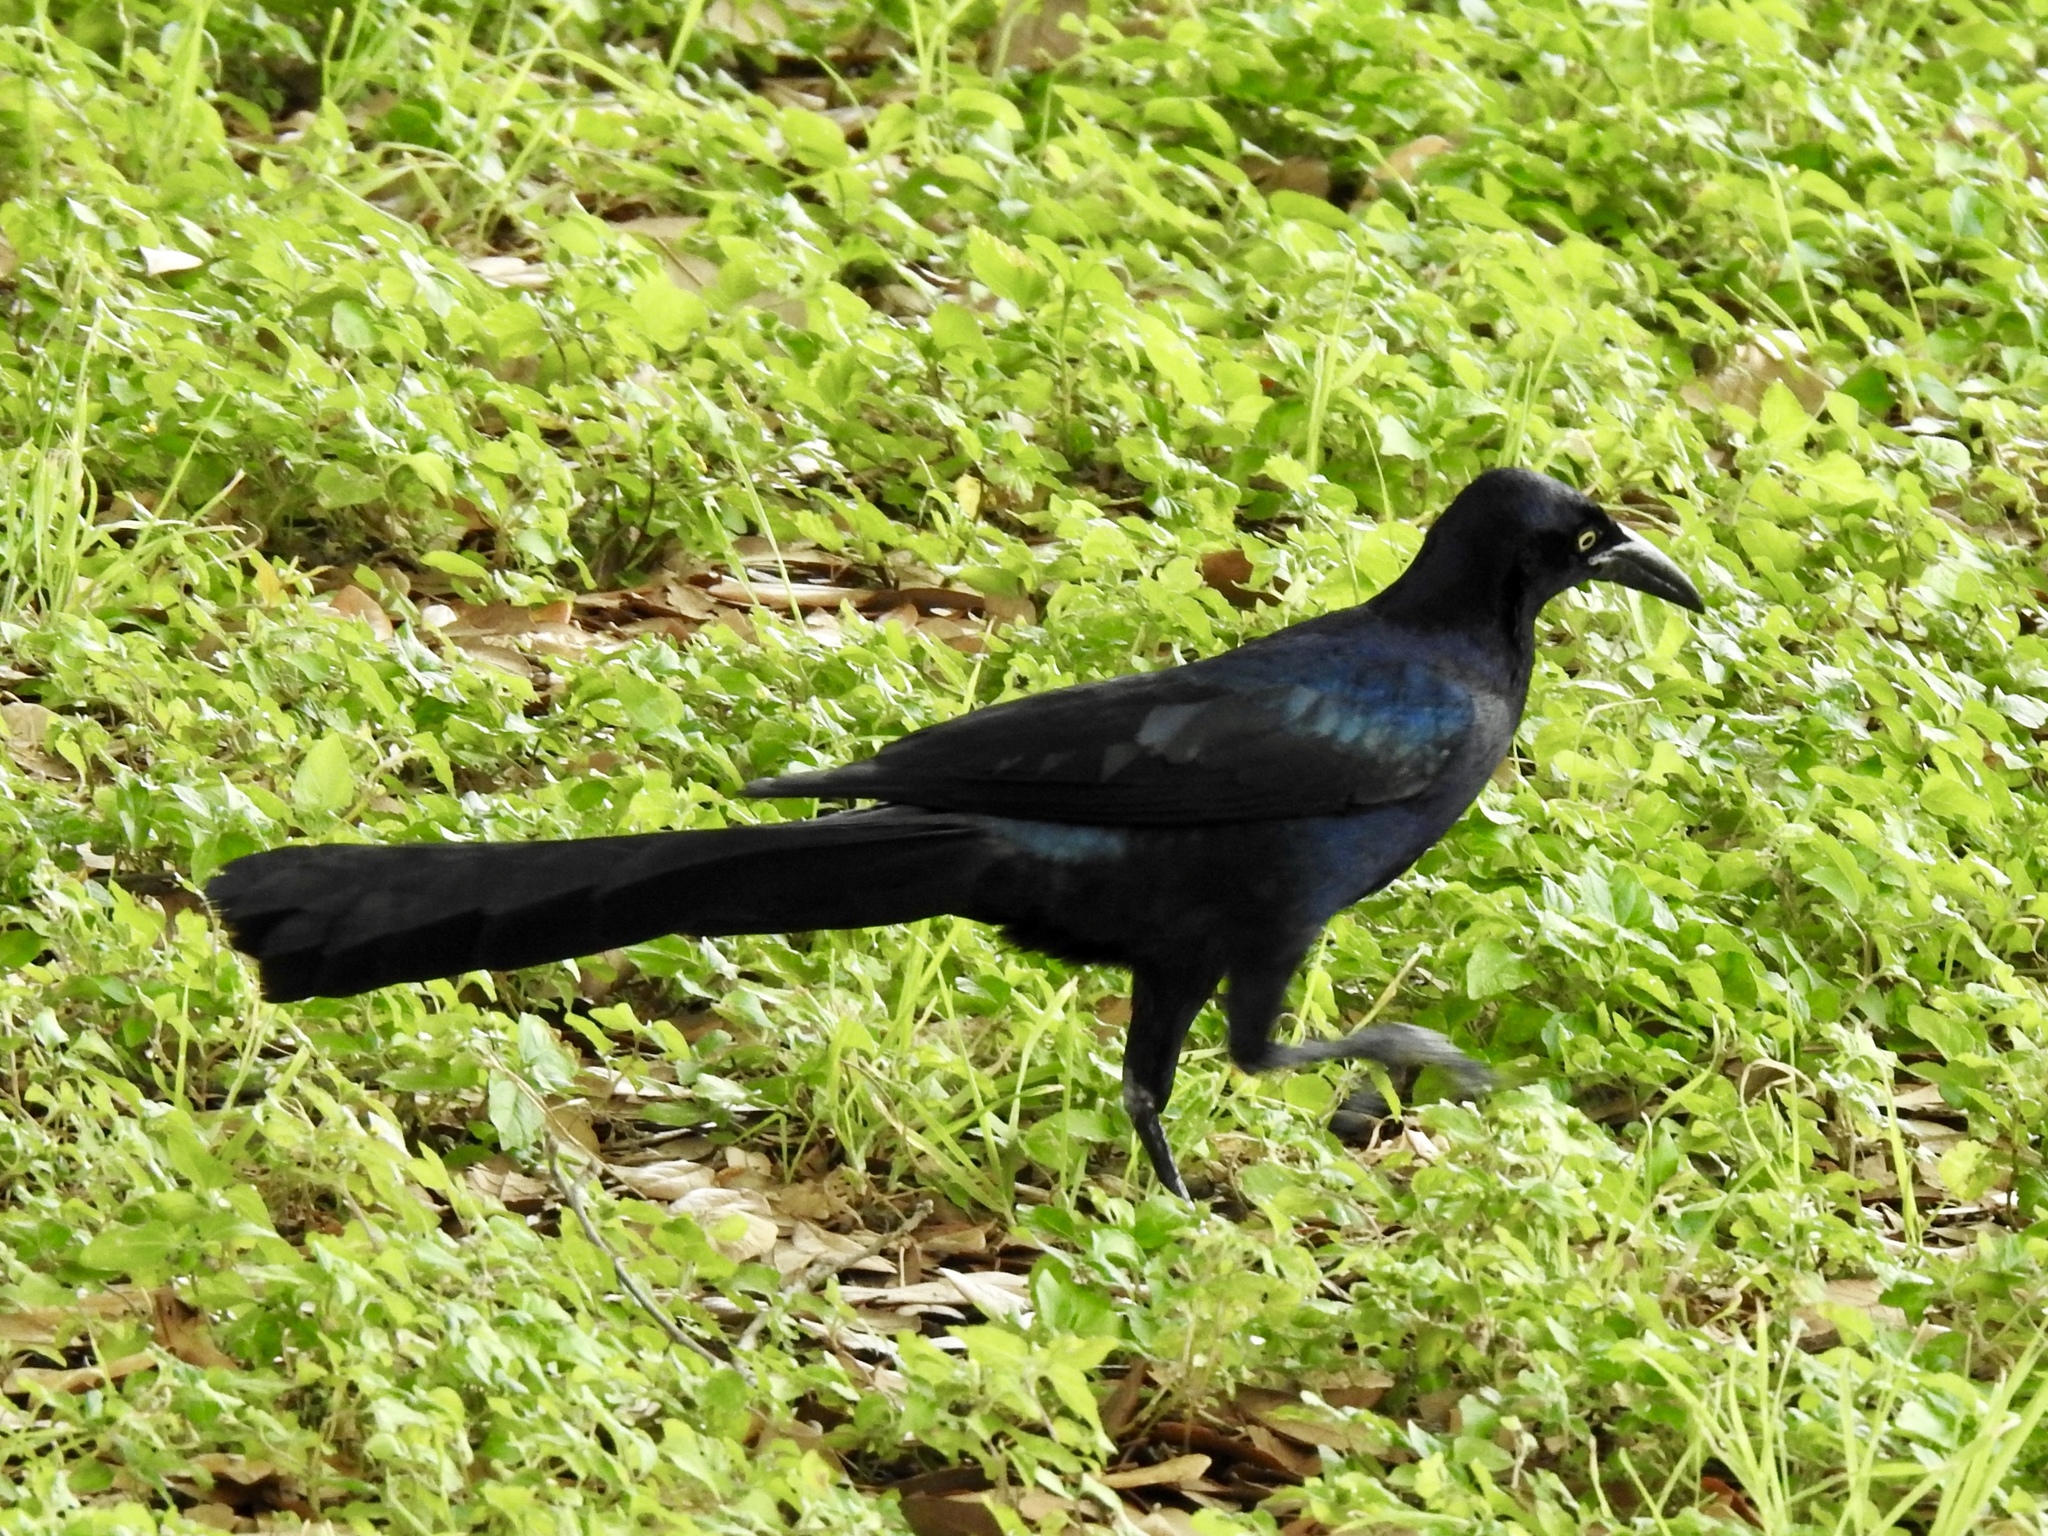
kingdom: Animalia
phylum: Chordata
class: Aves
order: Passeriformes
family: Icteridae
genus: Quiscalus
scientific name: Quiscalus mexicanus
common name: Great-tailed grackle
